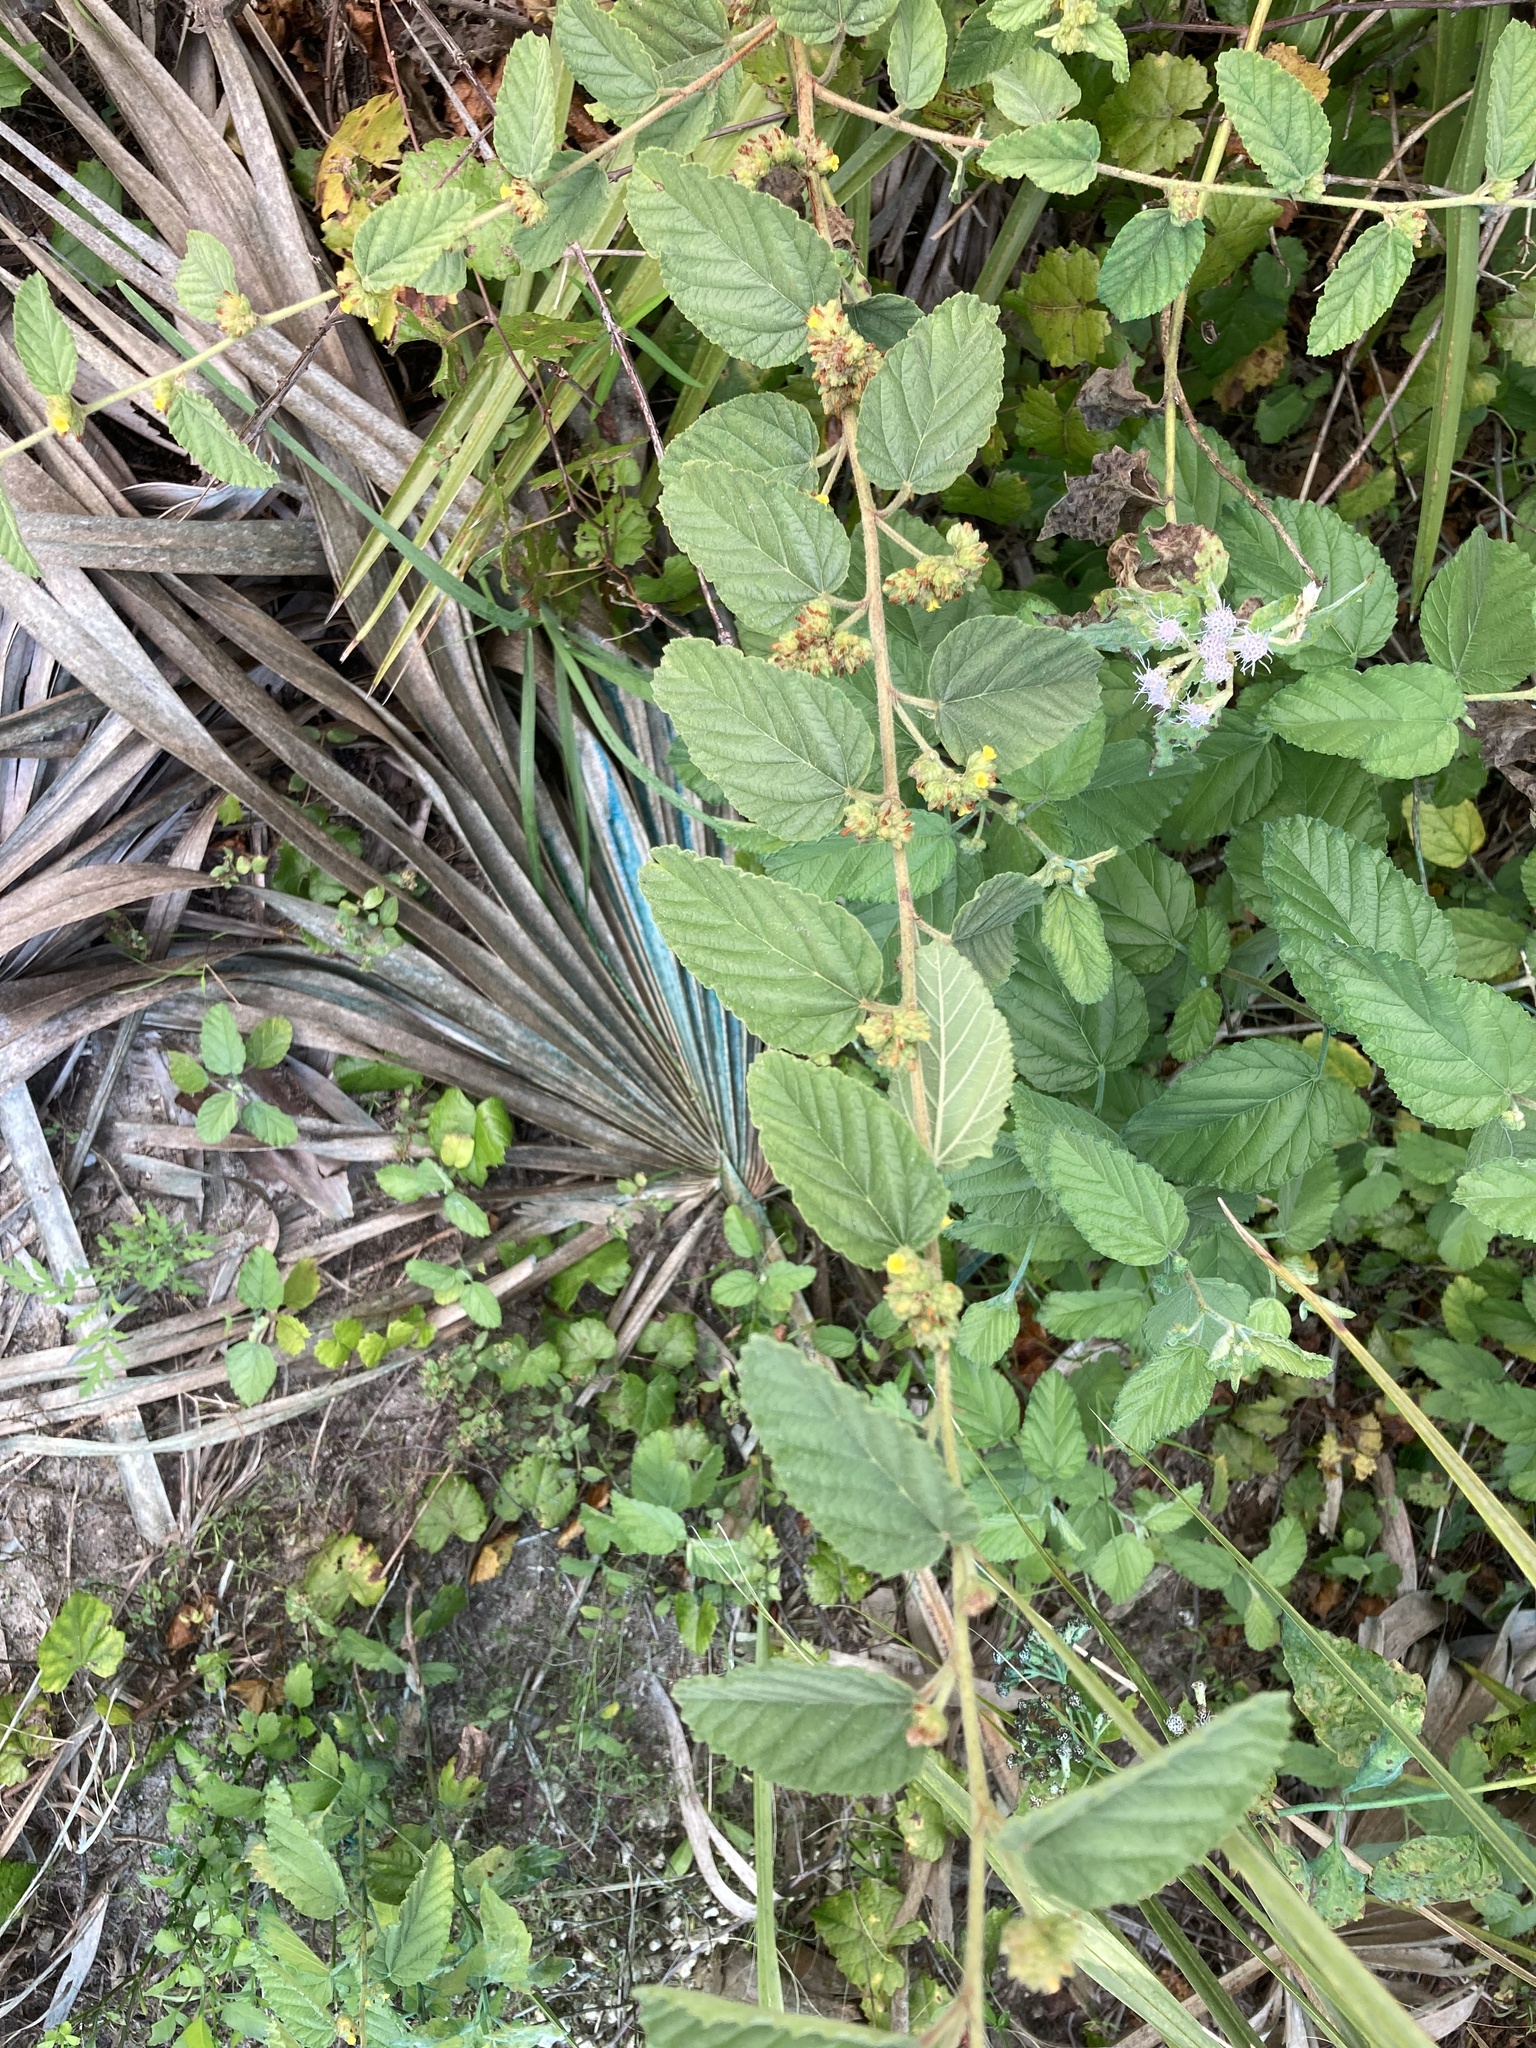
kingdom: Plantae
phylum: Tracheophyta
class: Magnoliopsida
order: Malvales
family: Malvaceae
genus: Waltheria
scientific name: Waltheria indica
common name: Leather-coat
